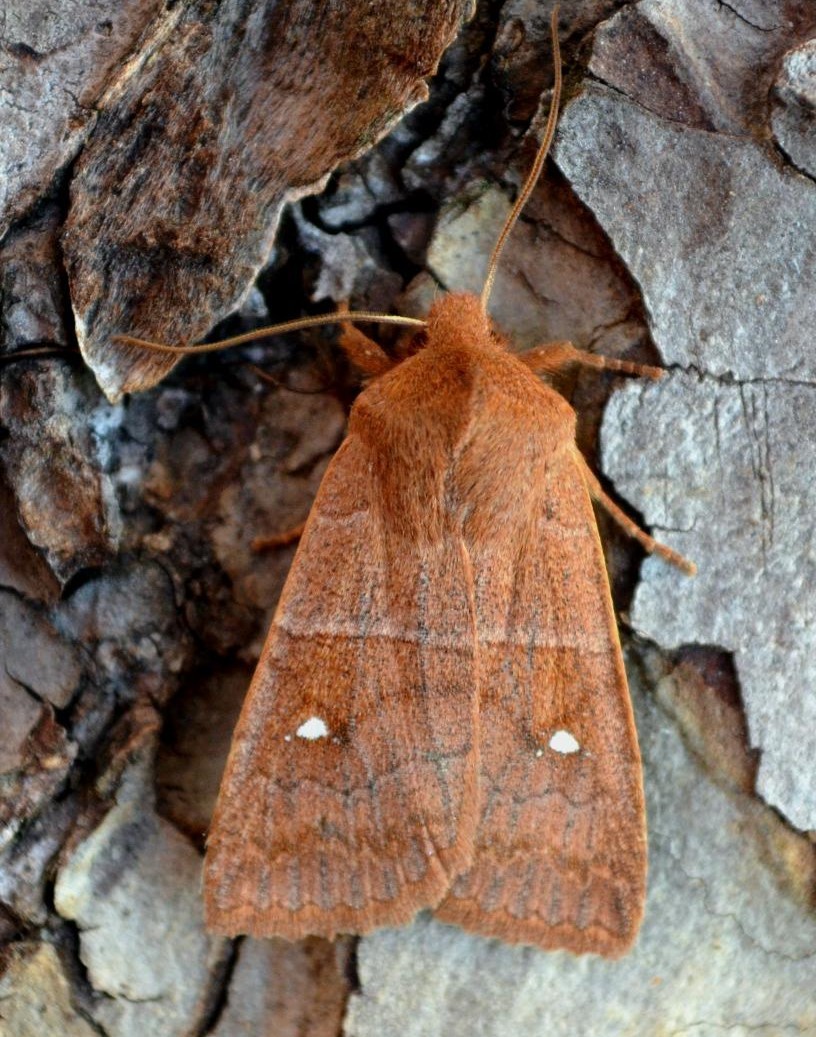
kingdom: Animalia
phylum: Arthropoda
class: Insecta
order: Lepidoptera
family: Noctuidae
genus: Eupsilia
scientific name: Eupsilia vinulenta
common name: Straight-toothed sallow
